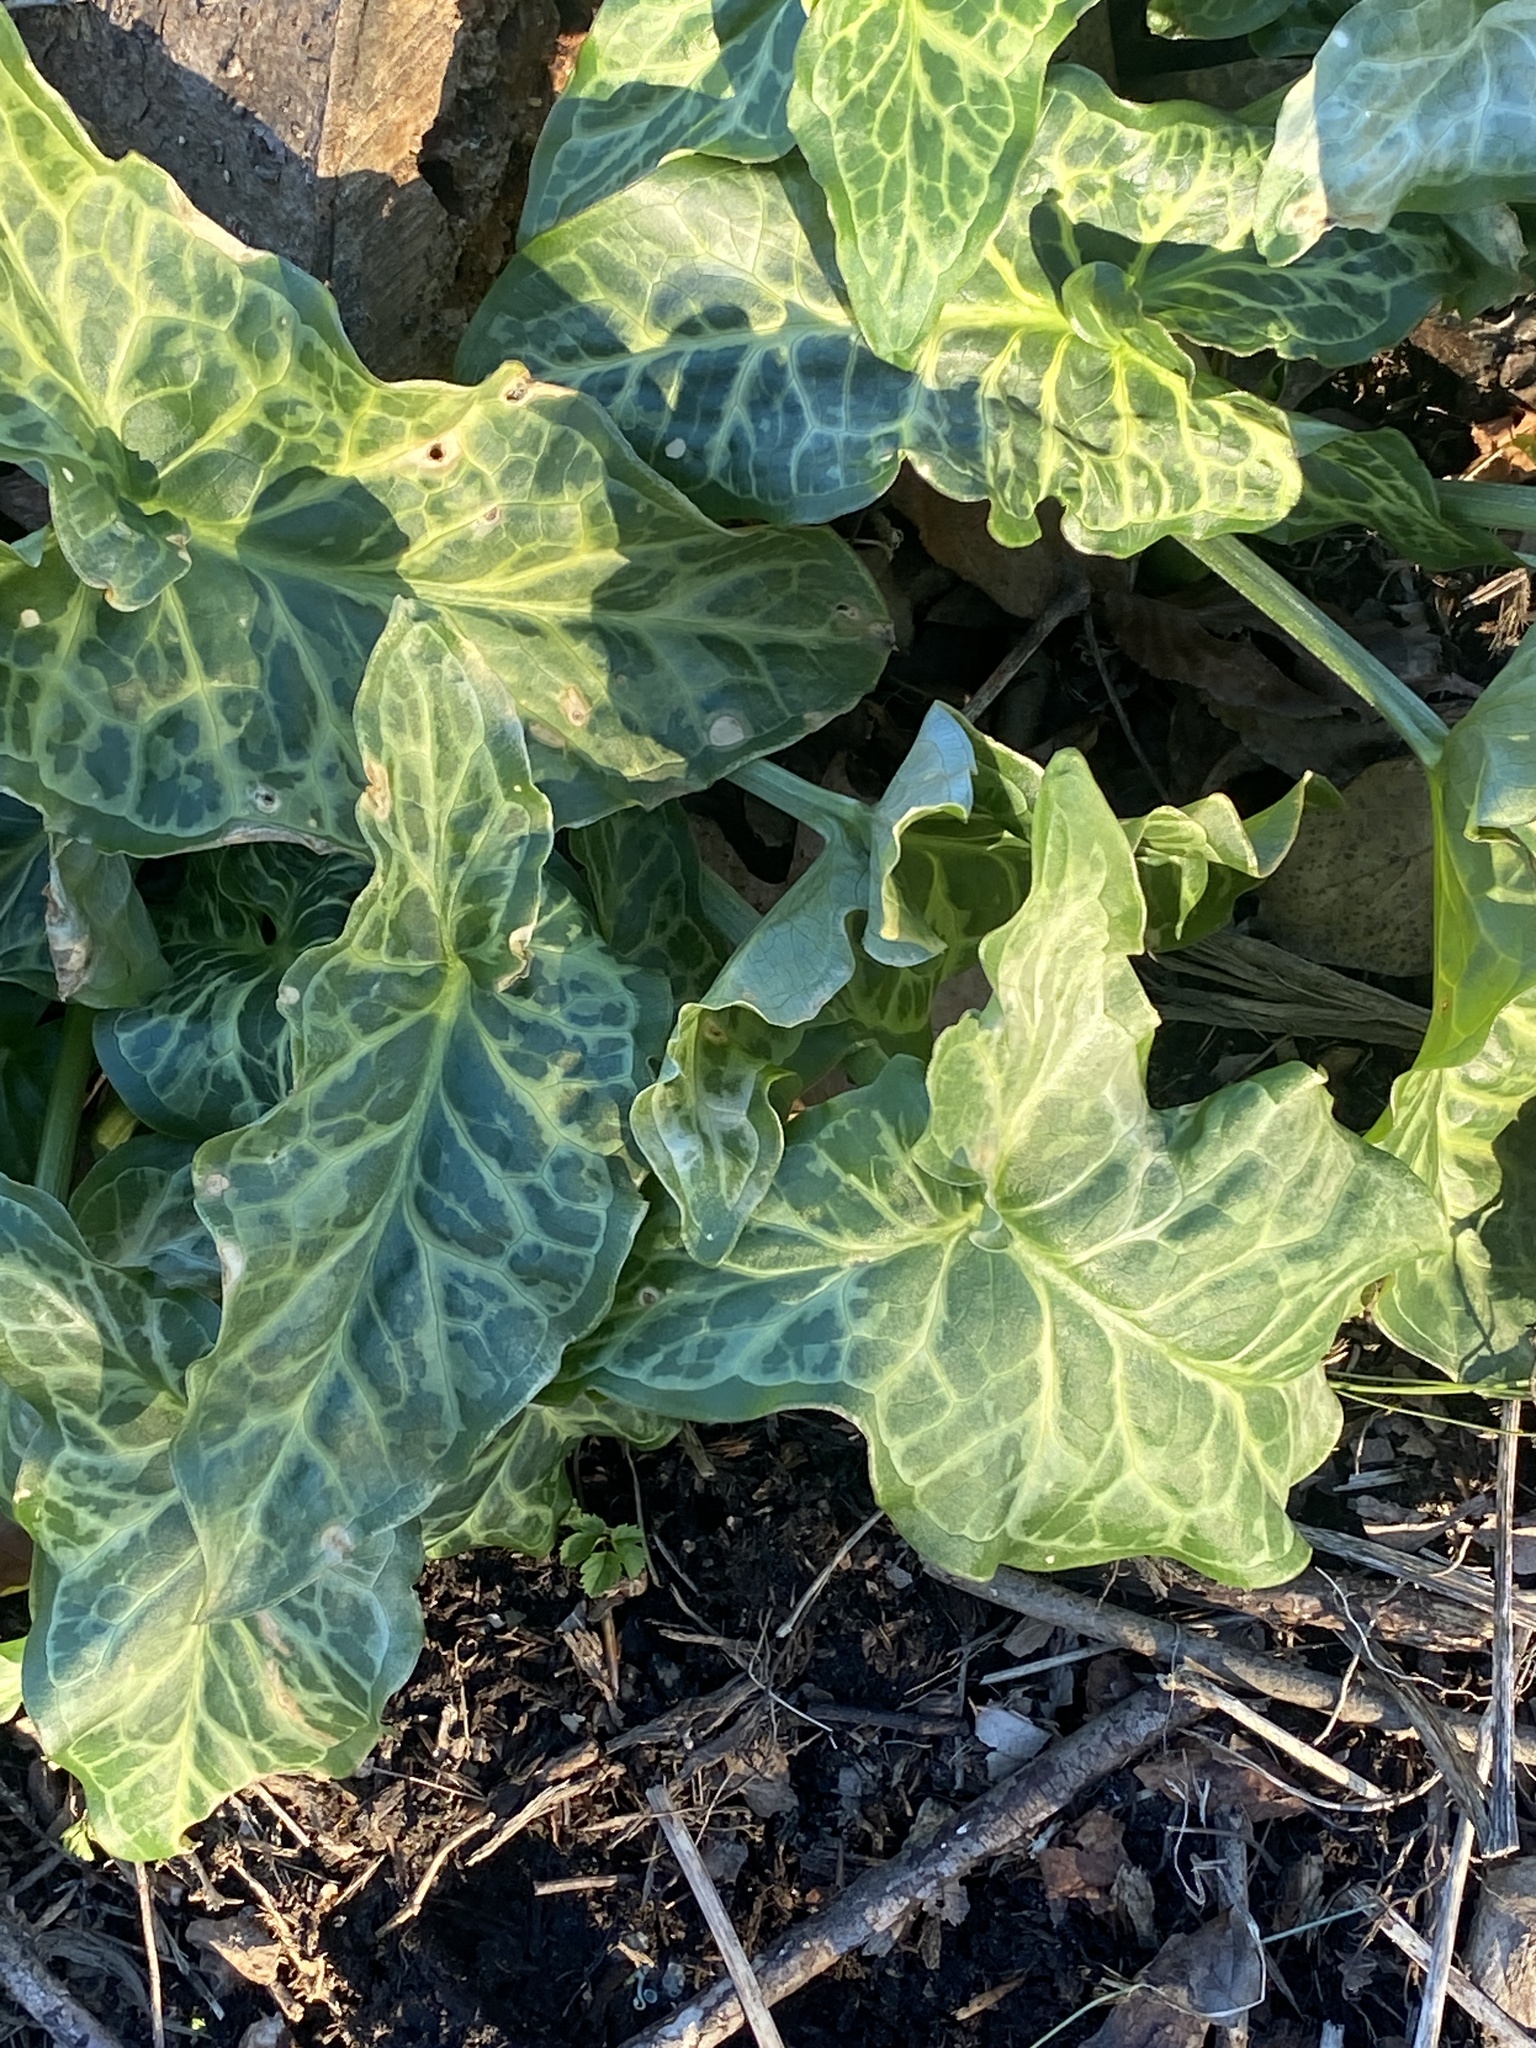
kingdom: Plantae
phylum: Tracheophyta
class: Liliopsida
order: Alismatales
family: Araceae
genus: Arum
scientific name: Arum italicum
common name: Italian lords-and-ladies
